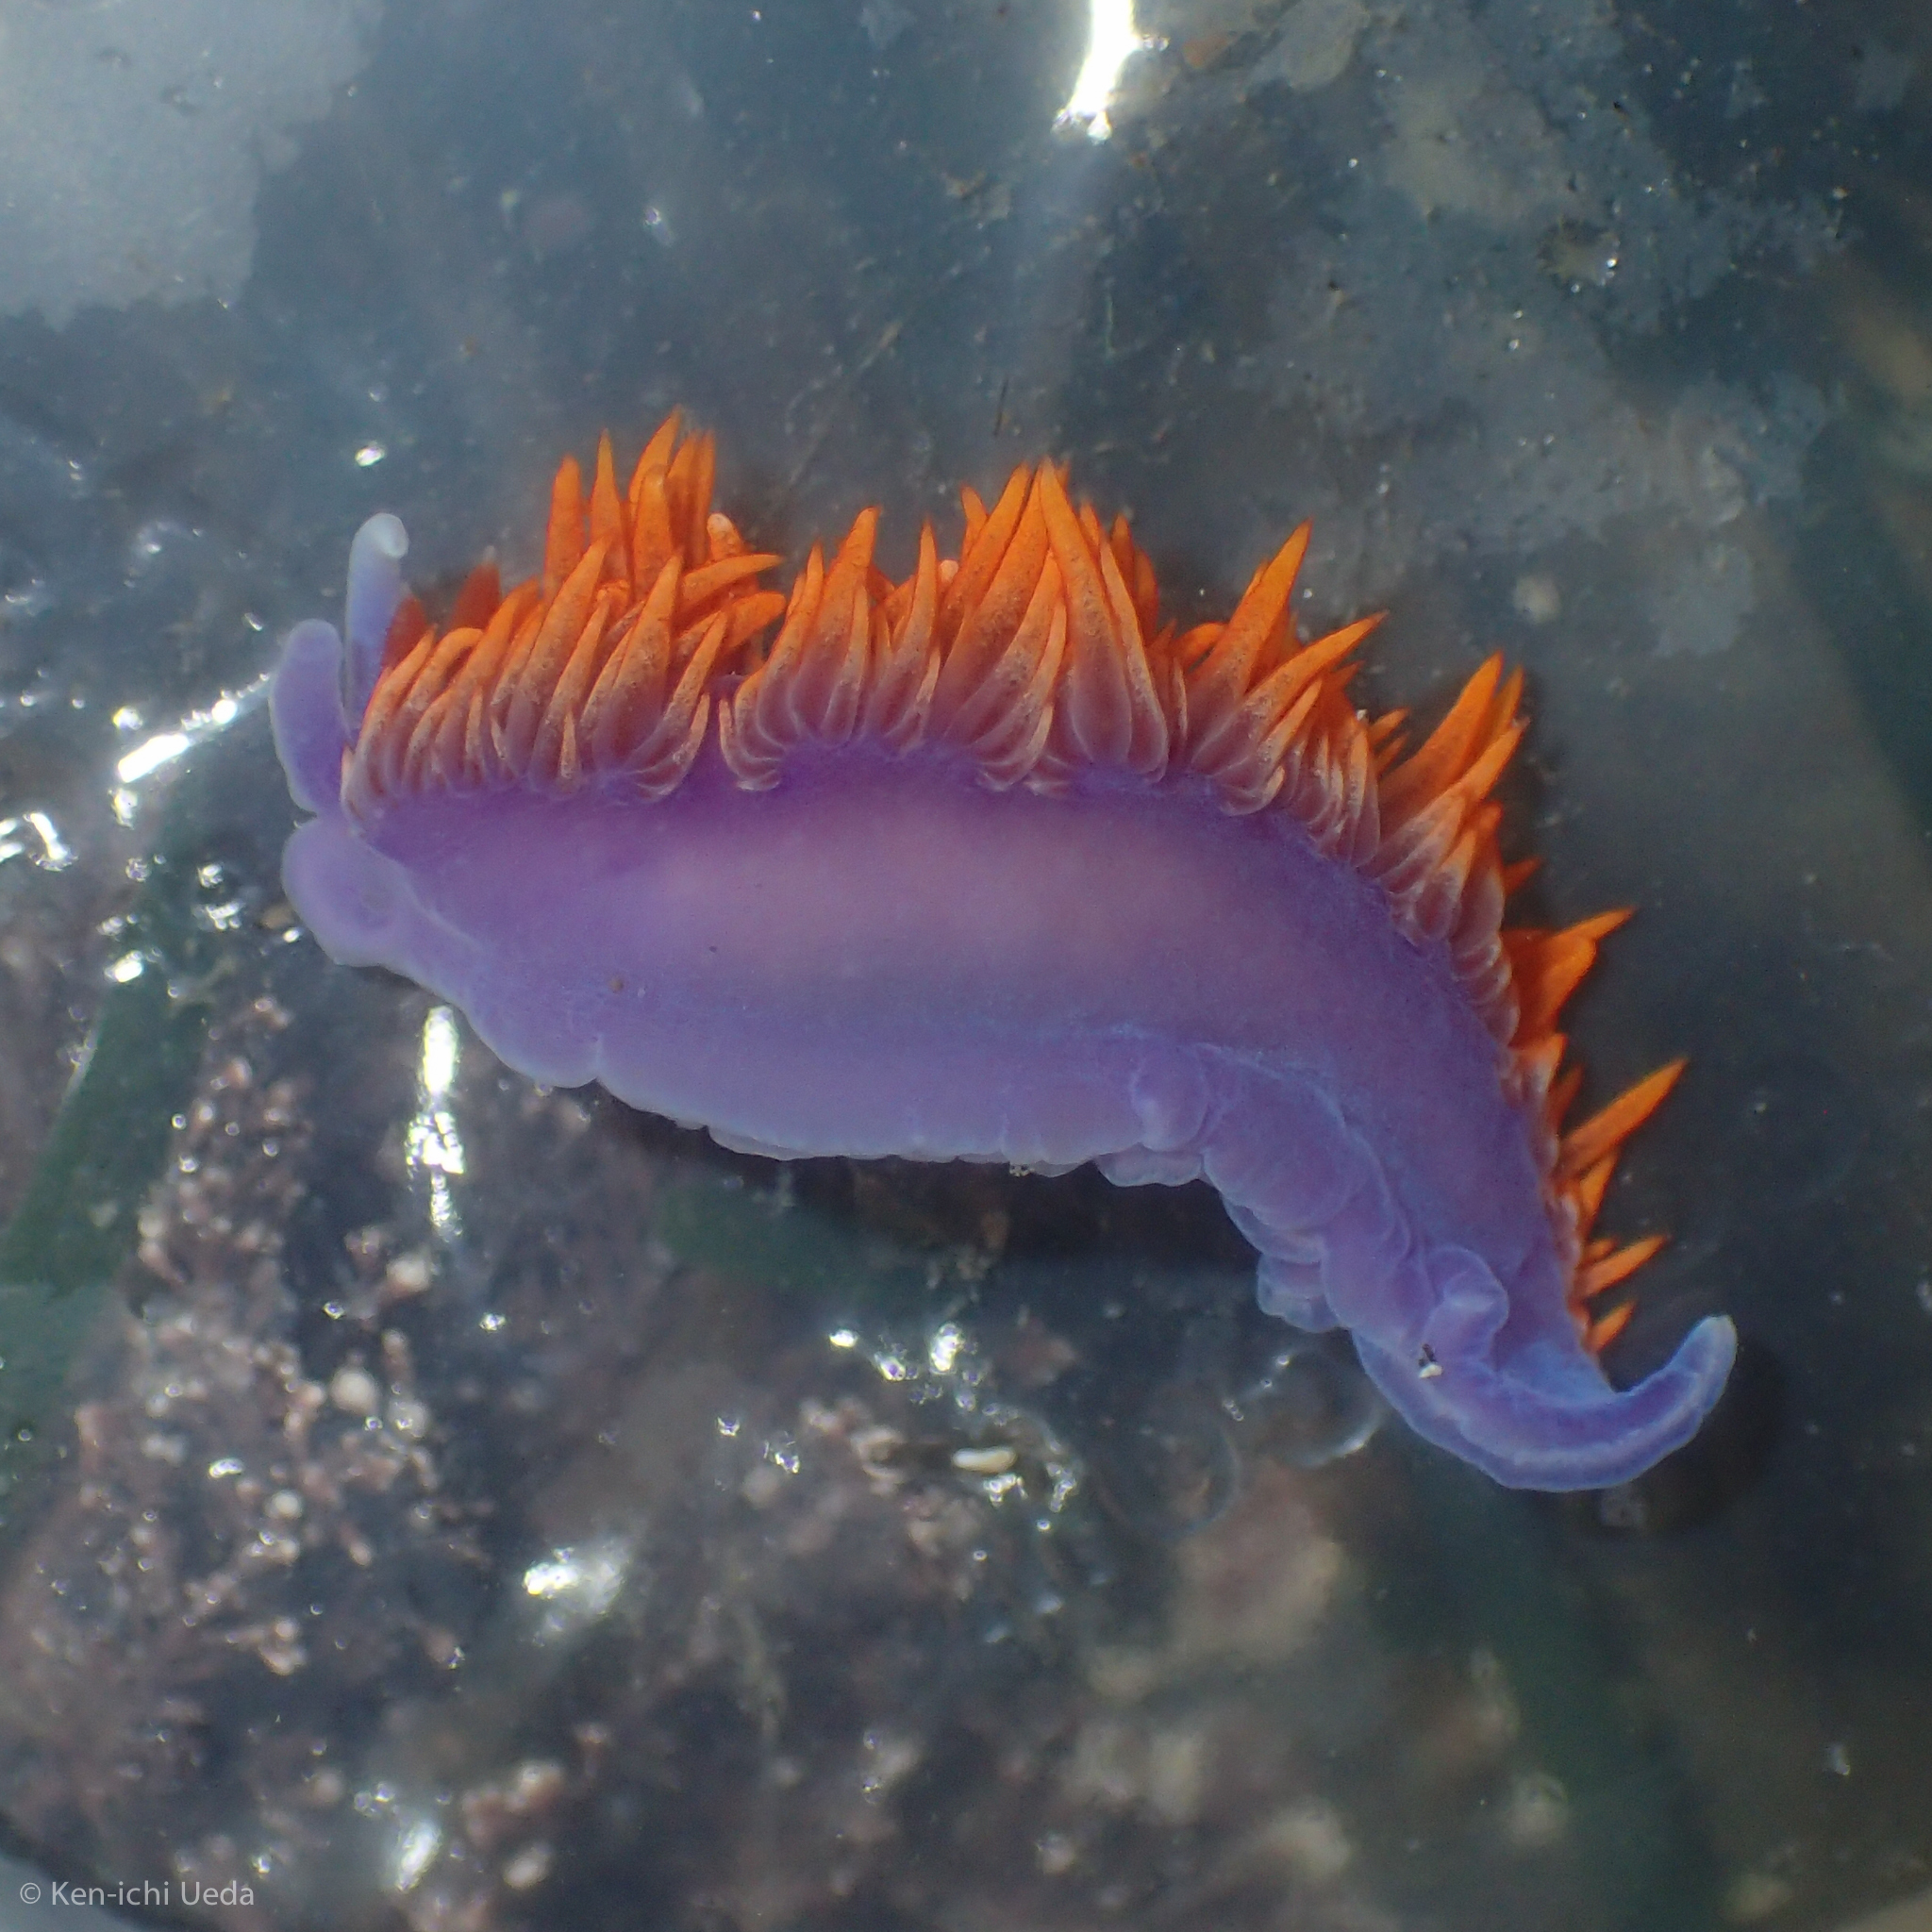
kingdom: Animalia
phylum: Mollusca
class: Gastropoda
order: Nudibranchia
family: Flabellinopsidae
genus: Flabellinopsis
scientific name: Flabellinopsis iodinea
